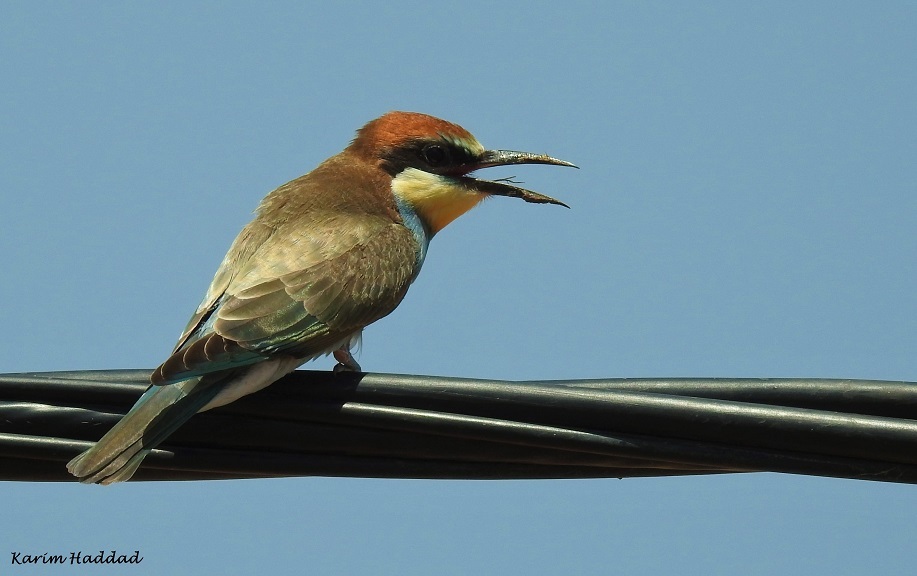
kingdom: Animalia
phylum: Chordata
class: Aves
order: Coraciiformes
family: Meropidae
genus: Merops
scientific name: Merops apiaster
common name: European bee-eater
